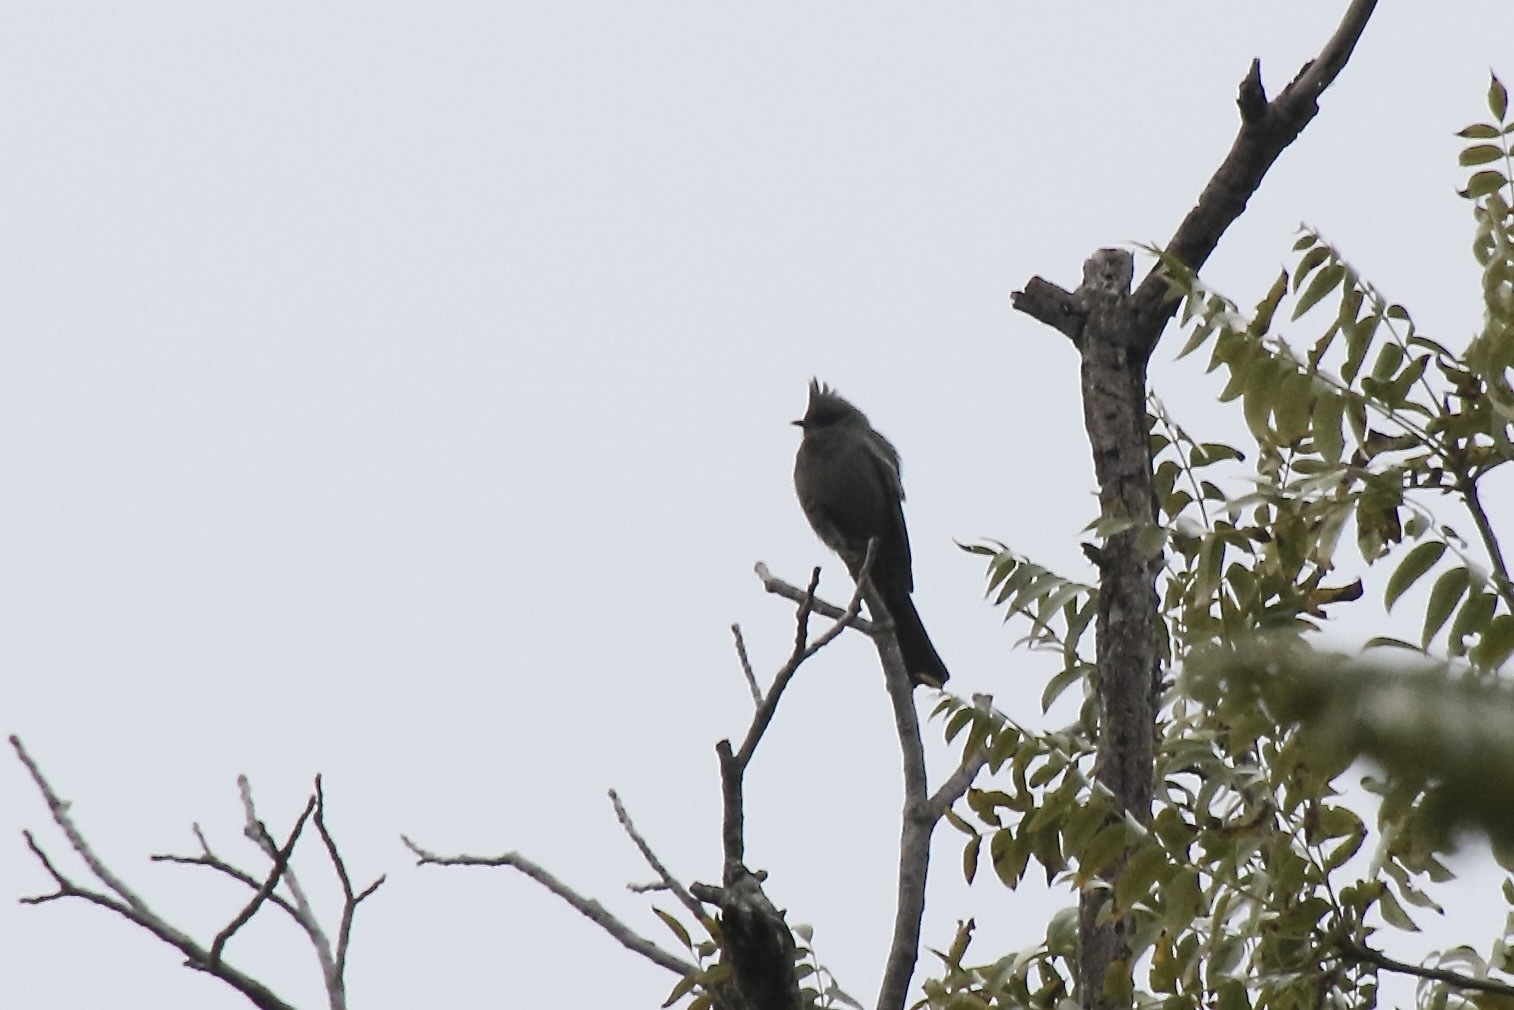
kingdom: Animalia
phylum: Chordata
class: Aves
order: Passeriformes
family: Ptilogonatidae
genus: Phainopepla
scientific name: Phainopepla nitens
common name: Phainopepla
